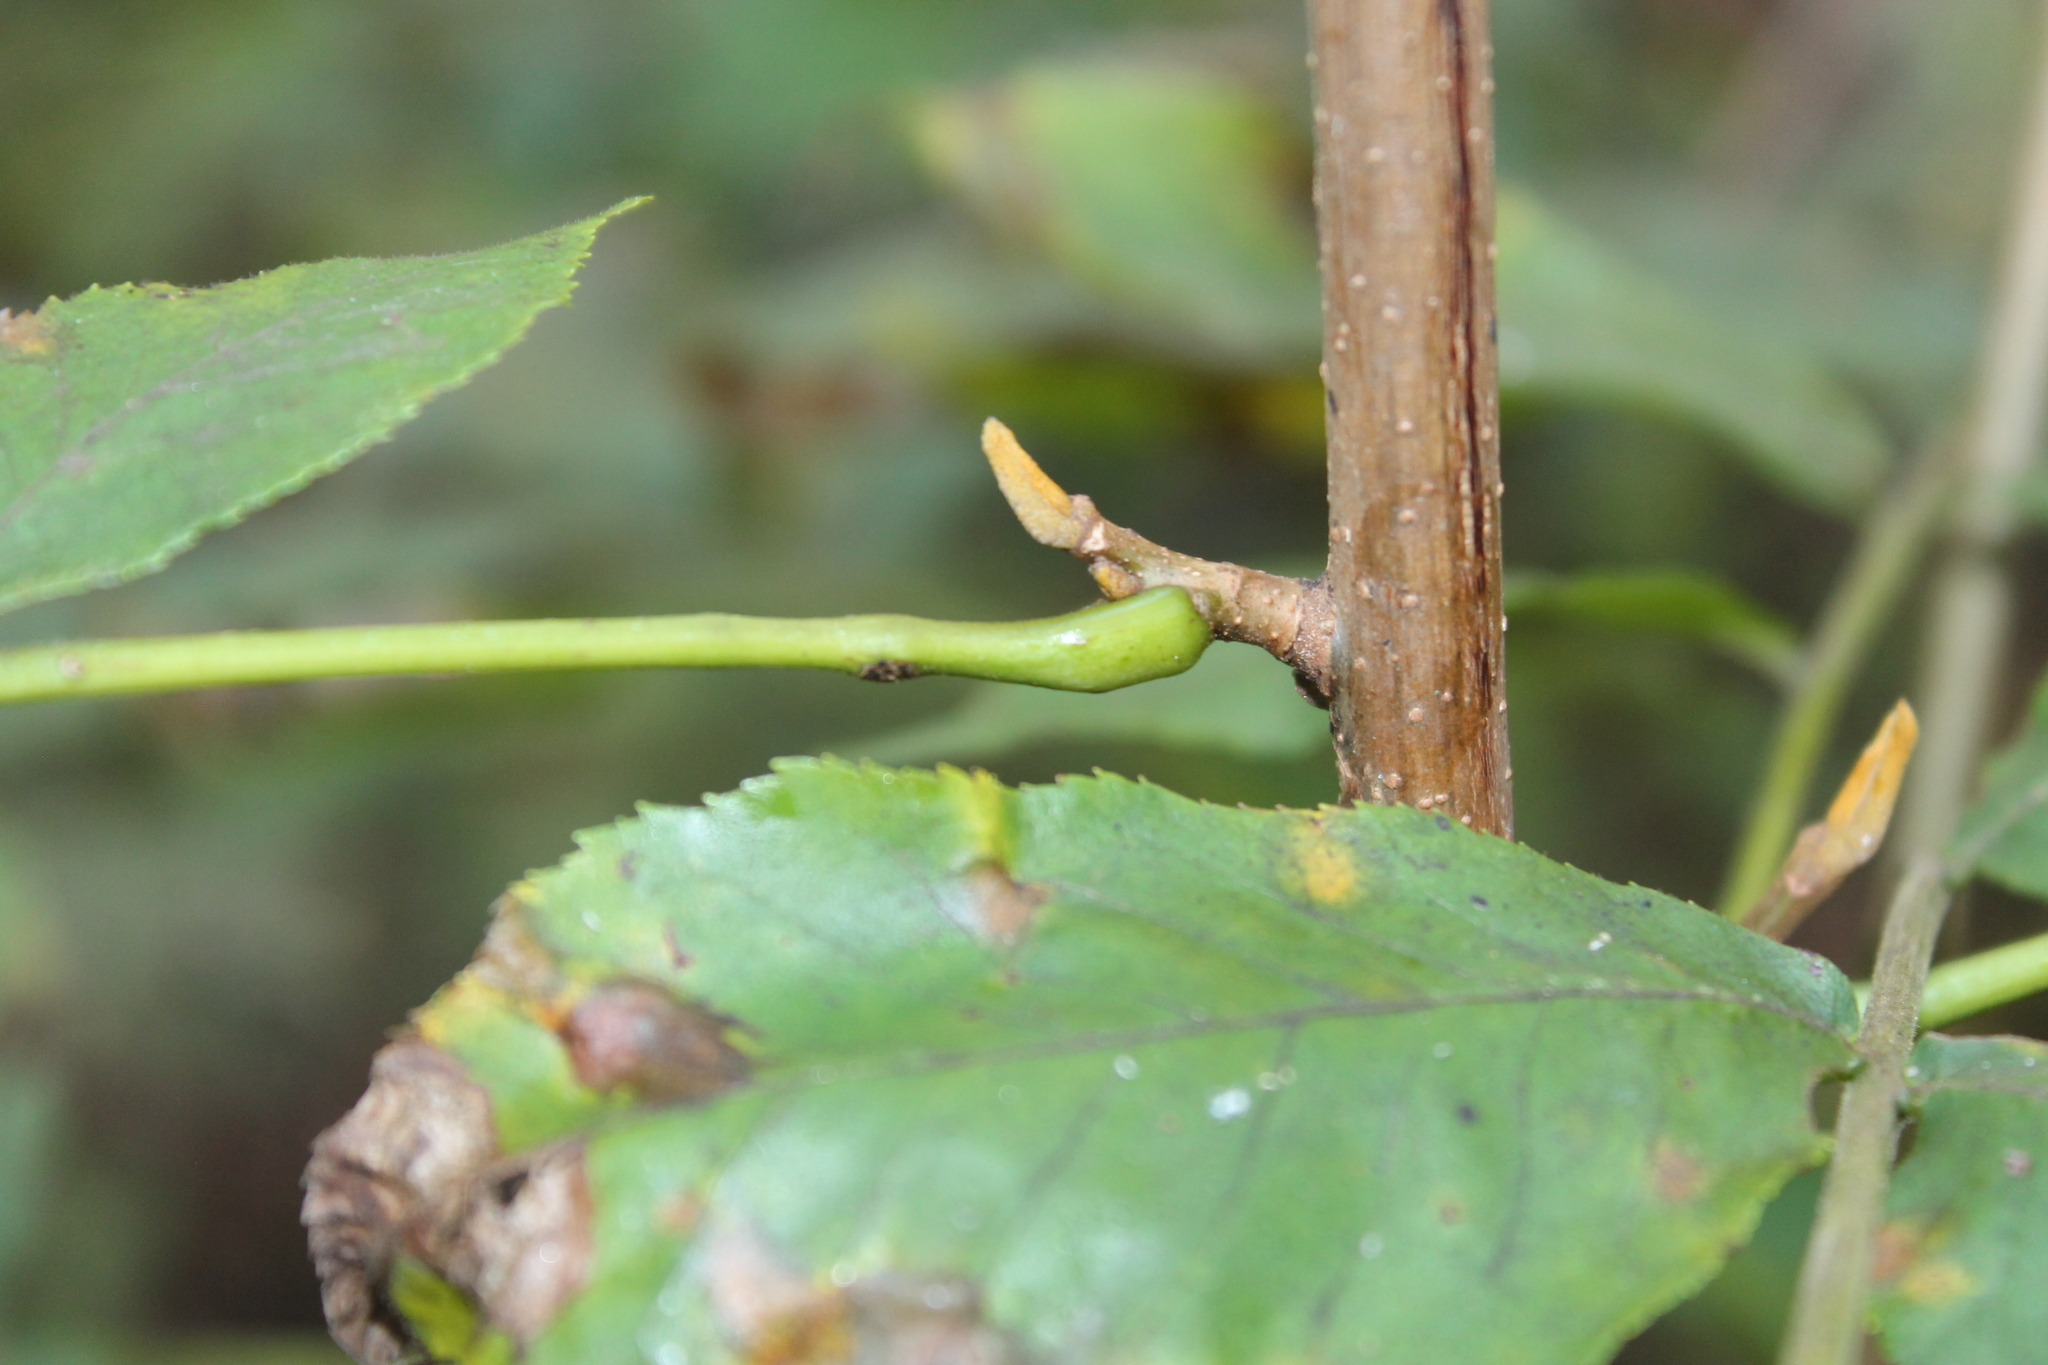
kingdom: Plantae
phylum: Tracheophyta
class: Magnoliopsida
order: Fagales
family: Juglandaceae
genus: Carya
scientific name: Carya cordiformis
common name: Bitternut hickory
